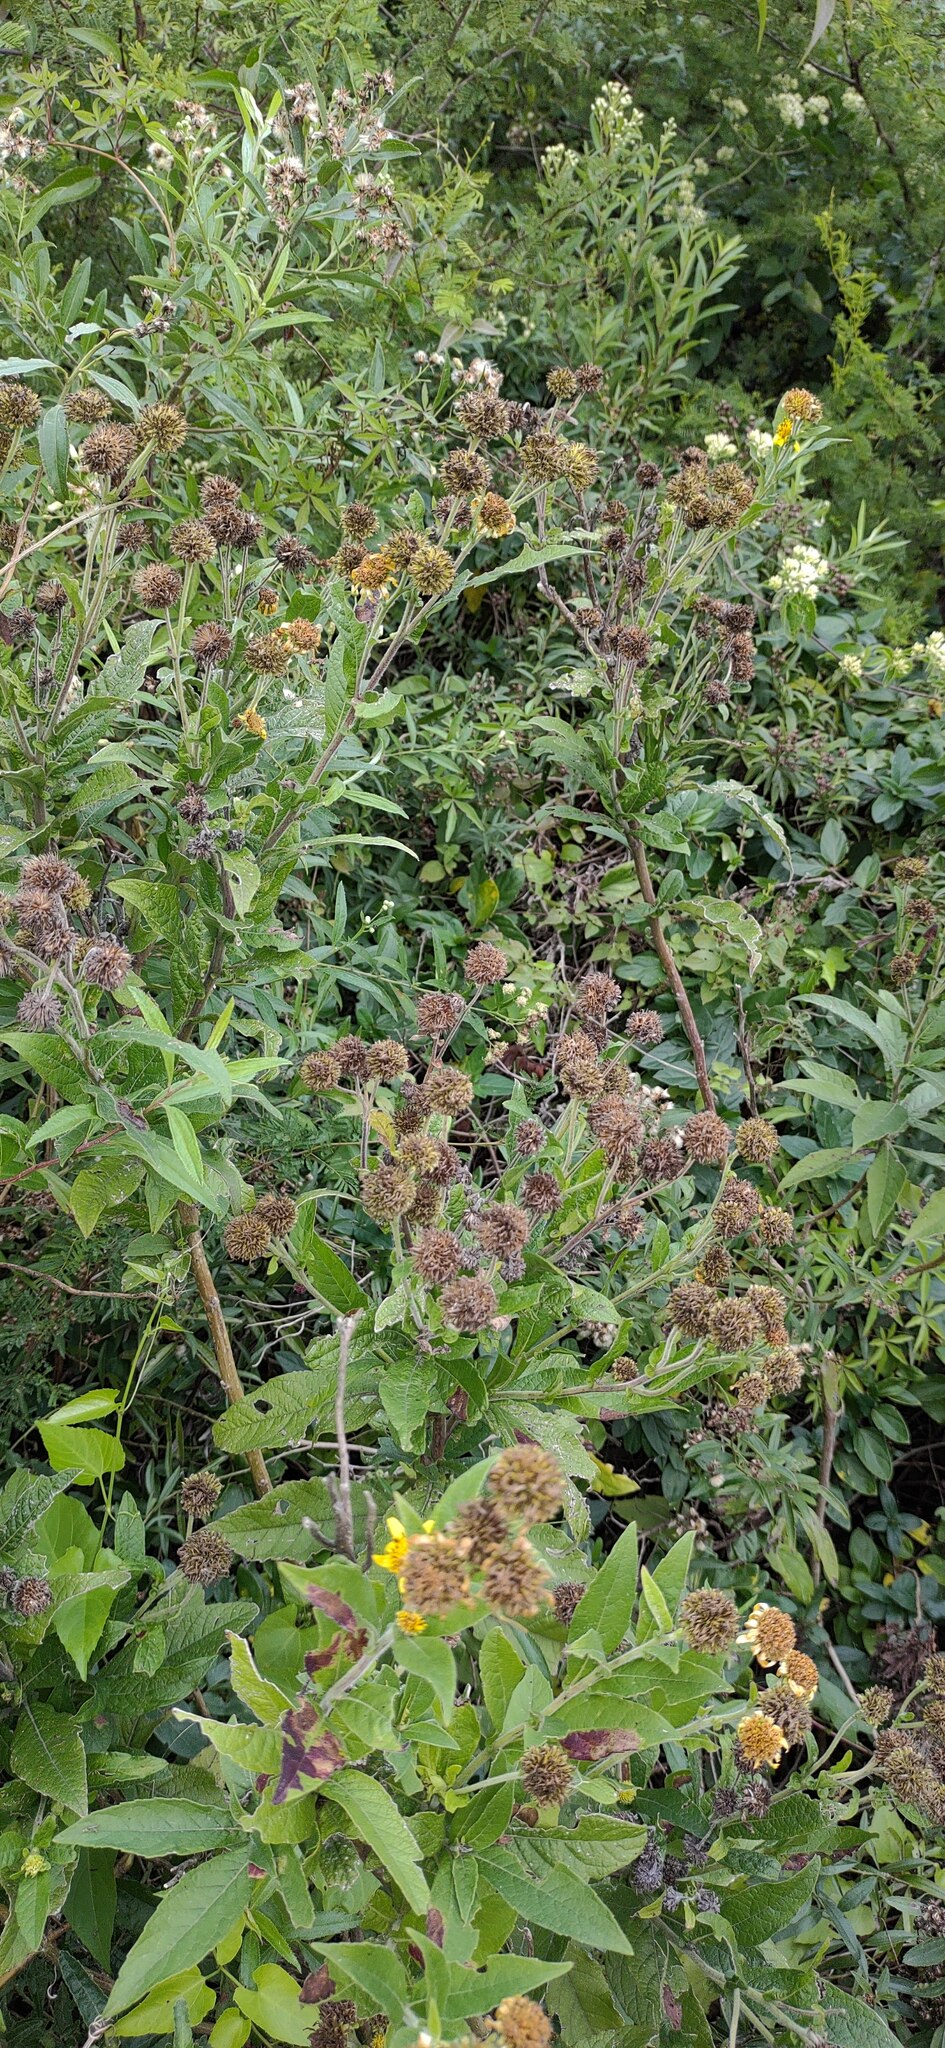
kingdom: Plantae
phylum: Tracheophyta
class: Magnoliopsida
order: Asterales
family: Asteraceae
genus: Verbesina
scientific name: Verbesina subcordata
